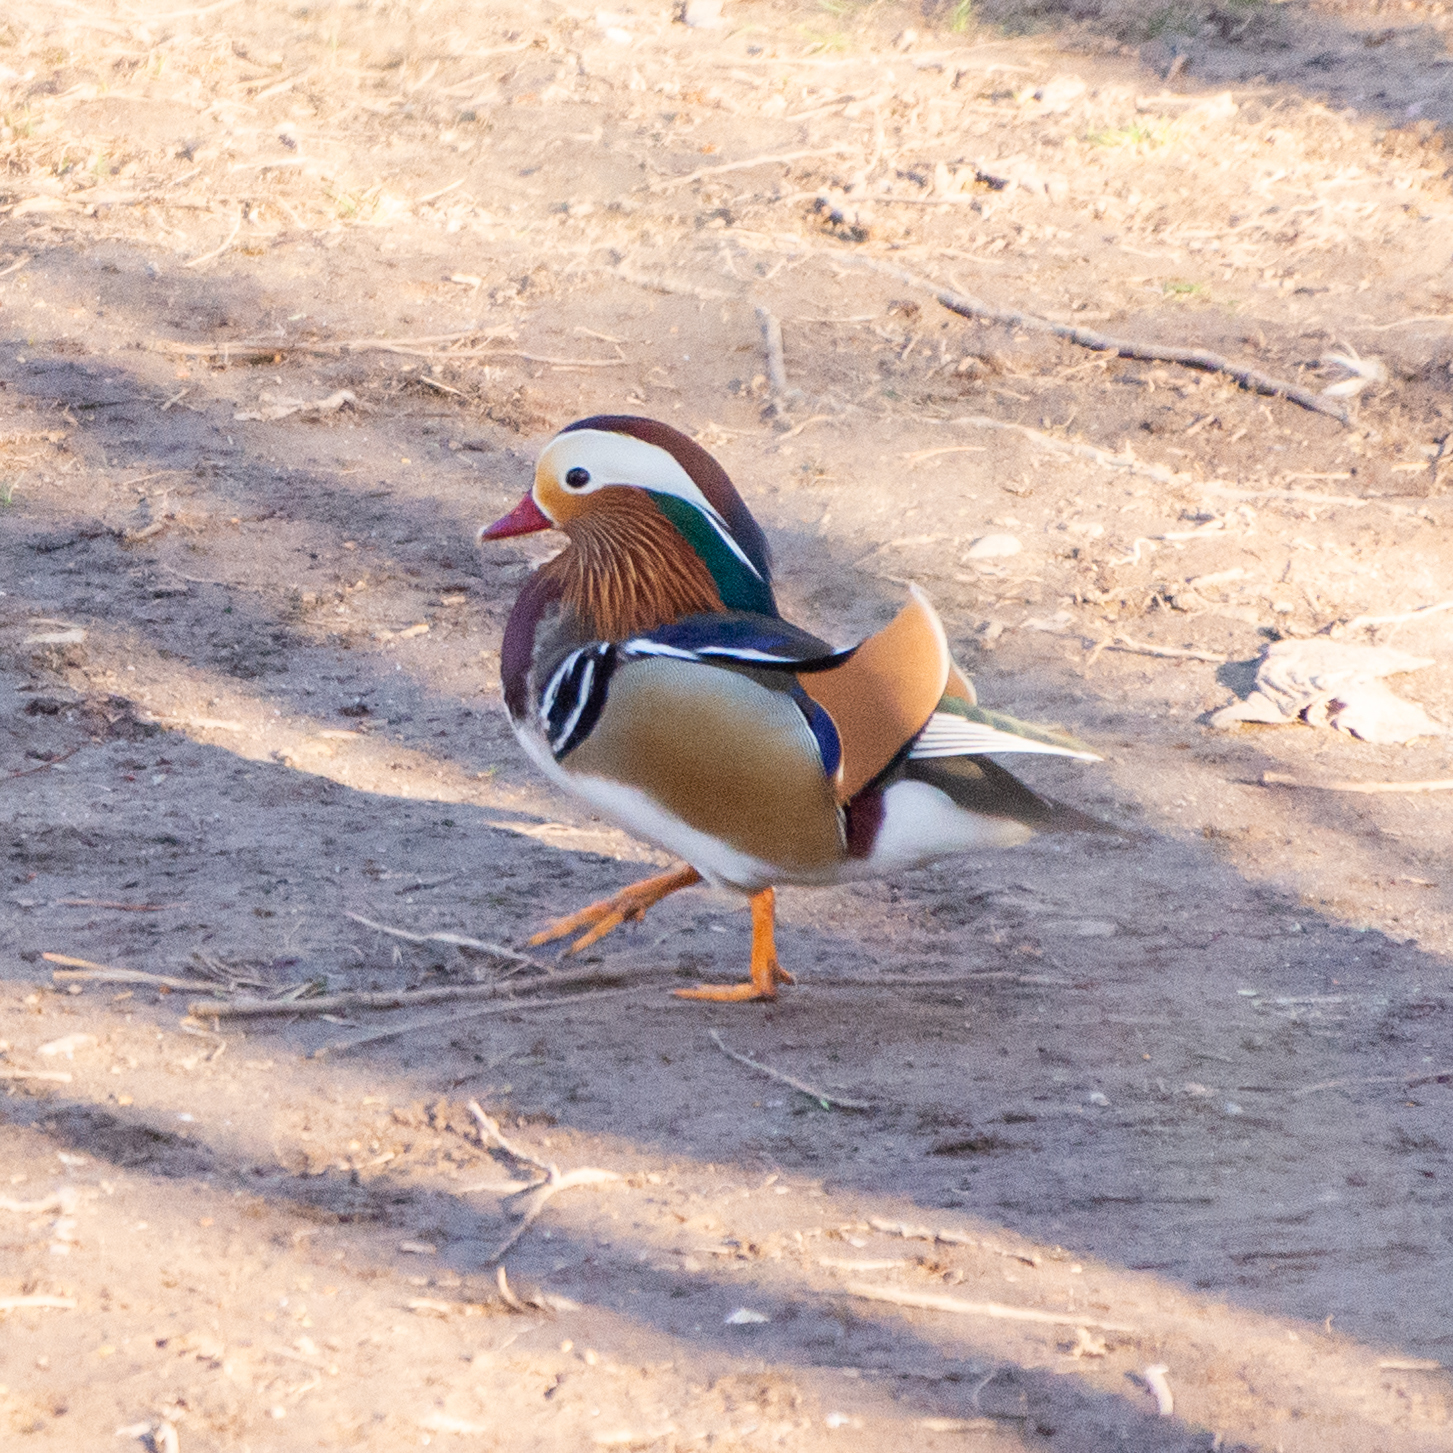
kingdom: Animalia
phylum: Chordata
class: Aves
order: Anseriformes
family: Anatidae
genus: Aix
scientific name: Aix galericulata
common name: Mandarin duck
